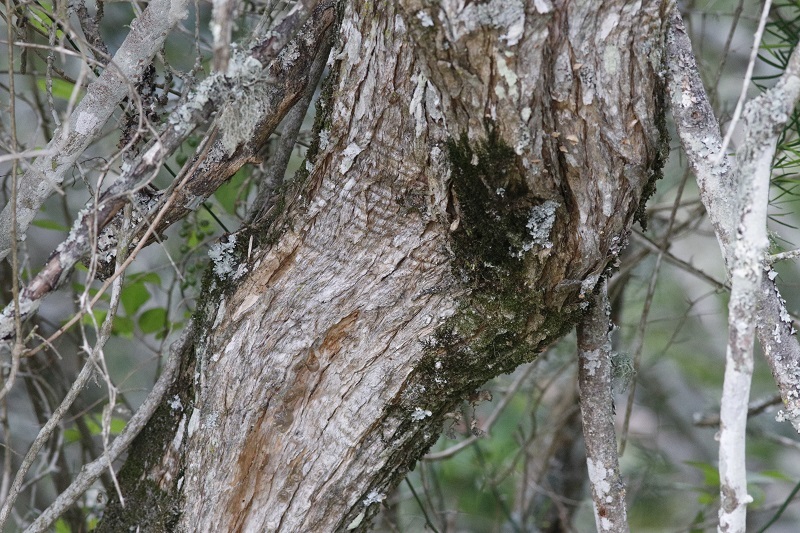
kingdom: Plantae
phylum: Tracheophyta
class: Magnoliopsida
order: Lamiales
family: Scrophulariaceae
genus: Buddleja
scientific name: Buddleja saligna
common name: False olive
